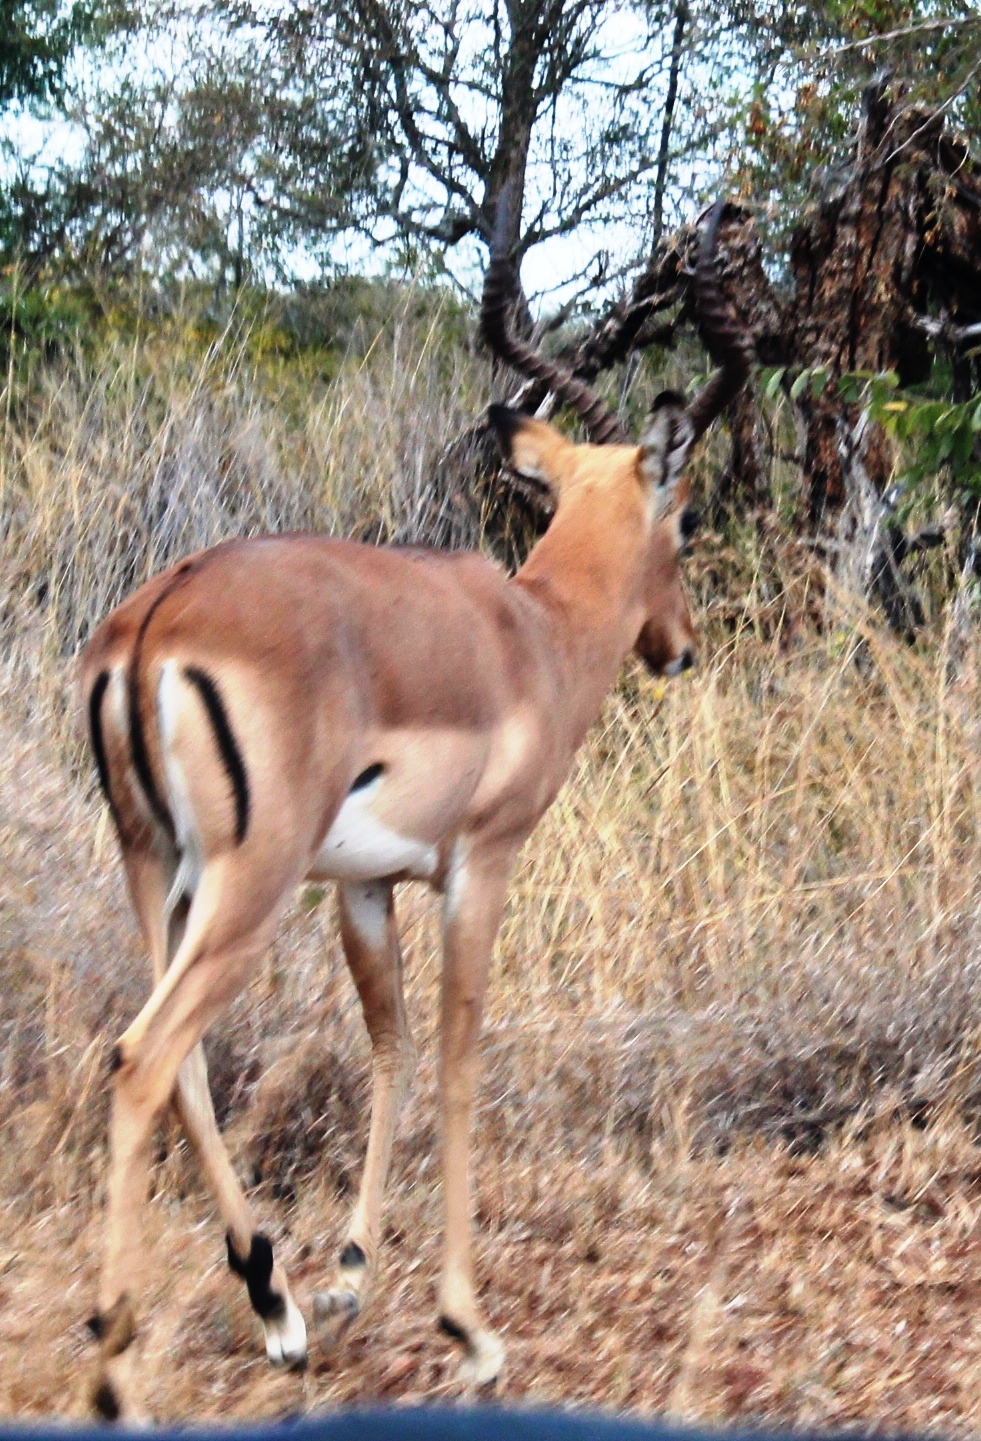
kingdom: Animalia
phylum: Chordata
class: Mammalia
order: Artiodactyla
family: Bovidae
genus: Aepyceros
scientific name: Aepyceros melampus
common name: Impala
